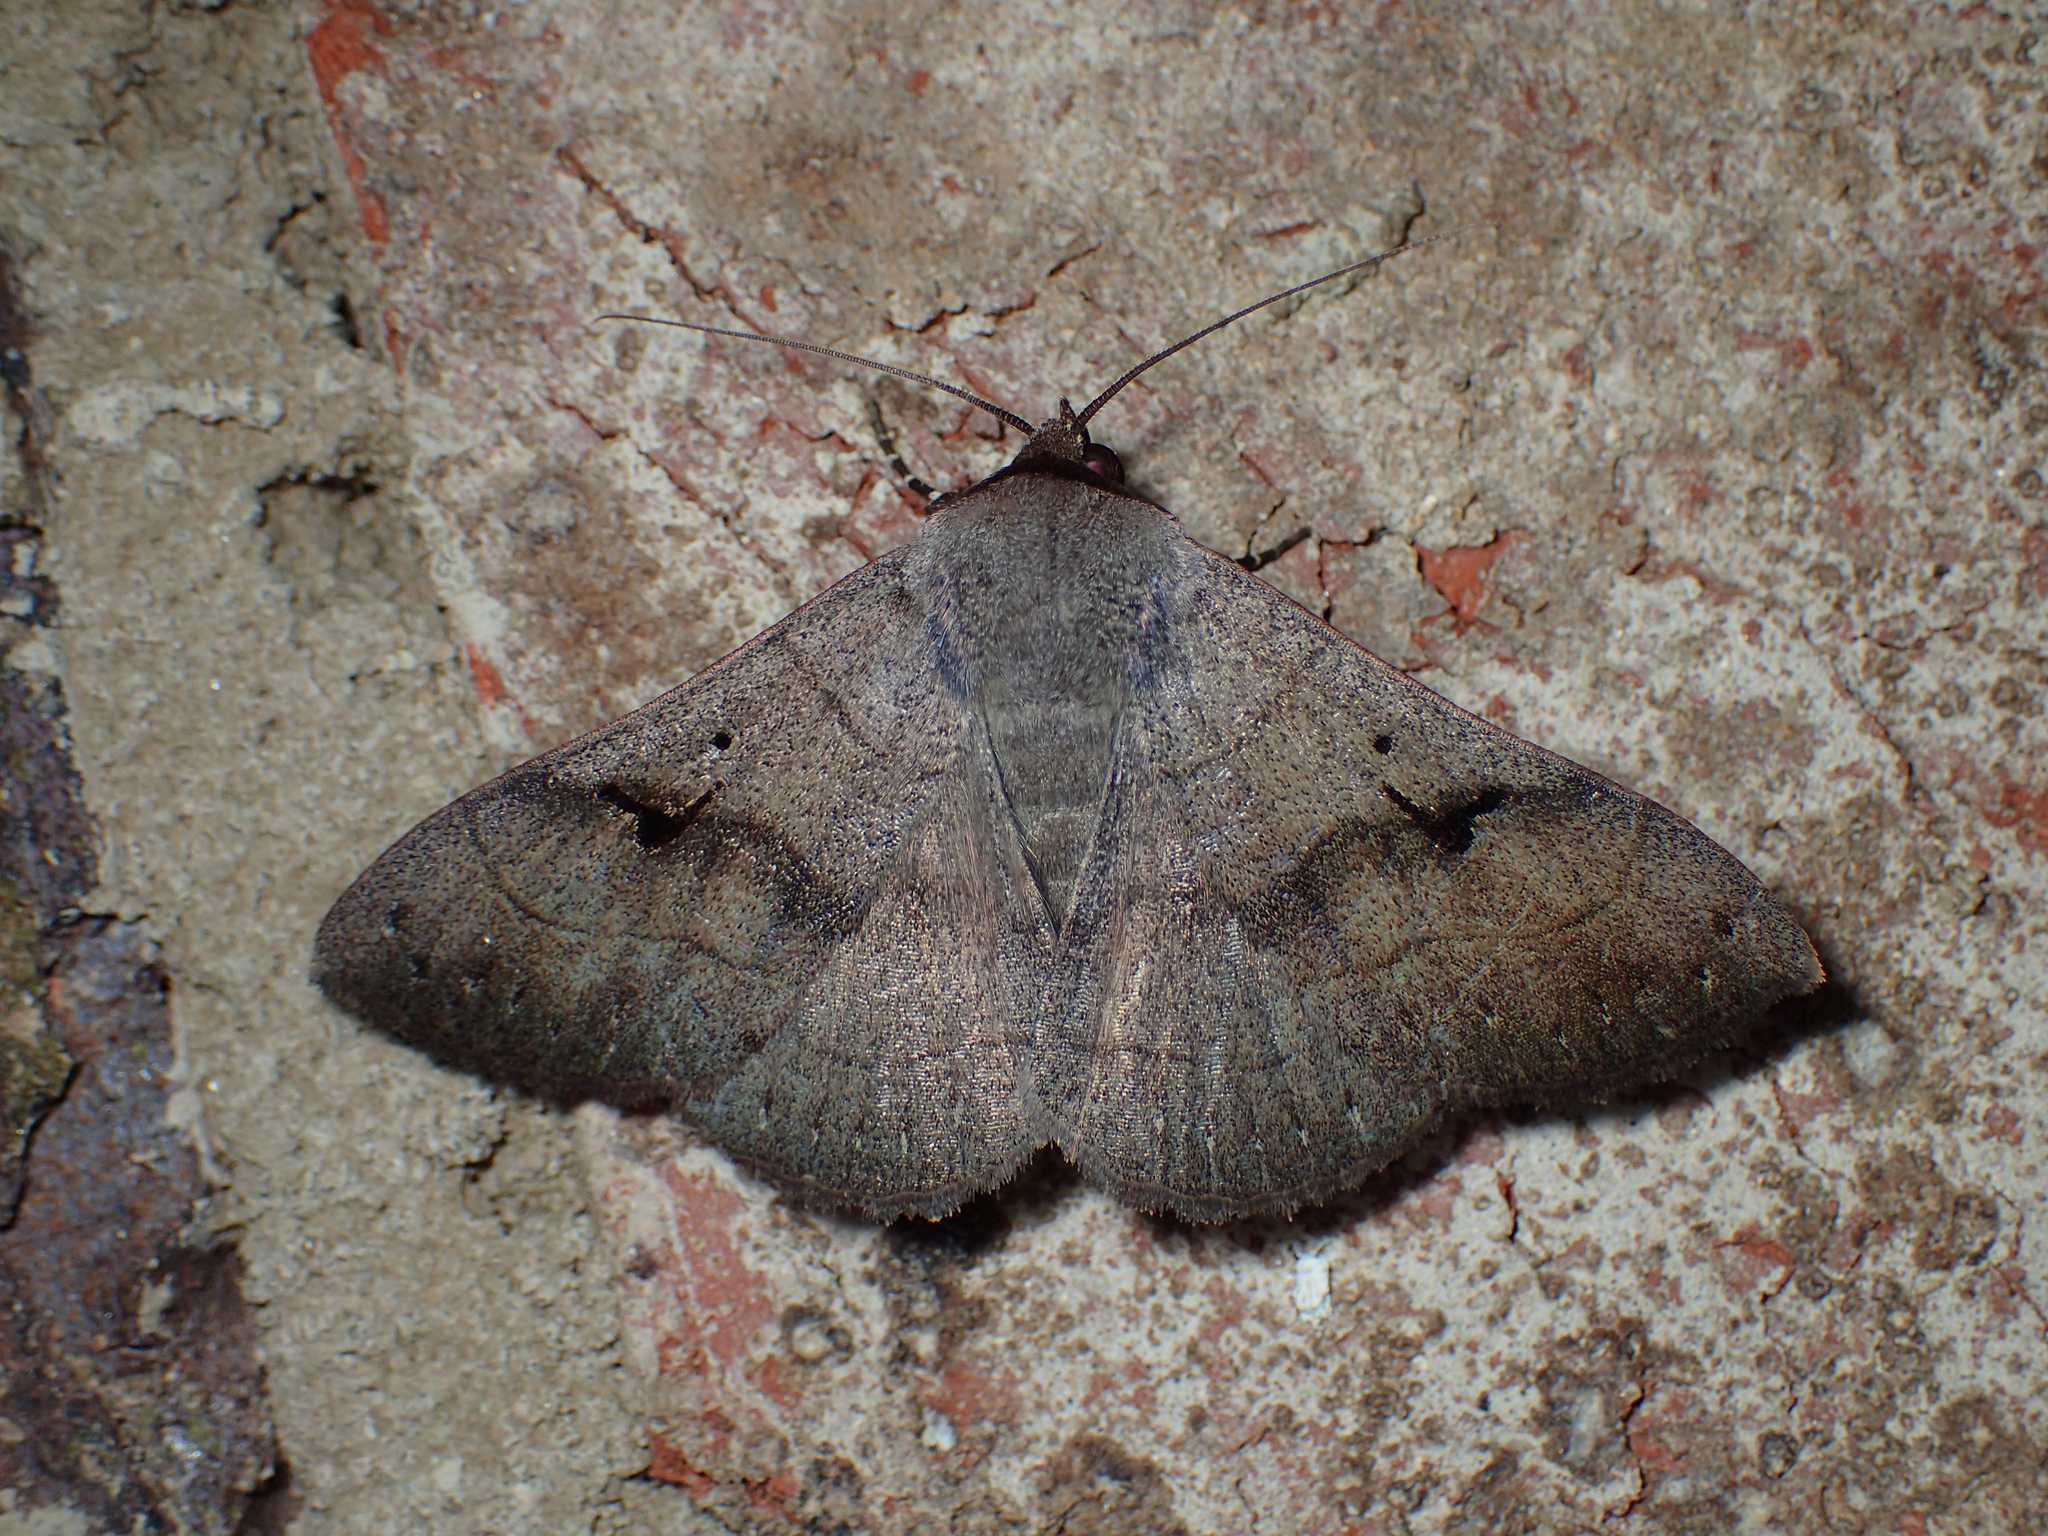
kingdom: Animalia
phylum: Arthropoda
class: Insecta
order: Lepidoptera
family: Erebidae
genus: Panopoda
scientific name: Panopoda carneicosta
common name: Brown panopoda moth
